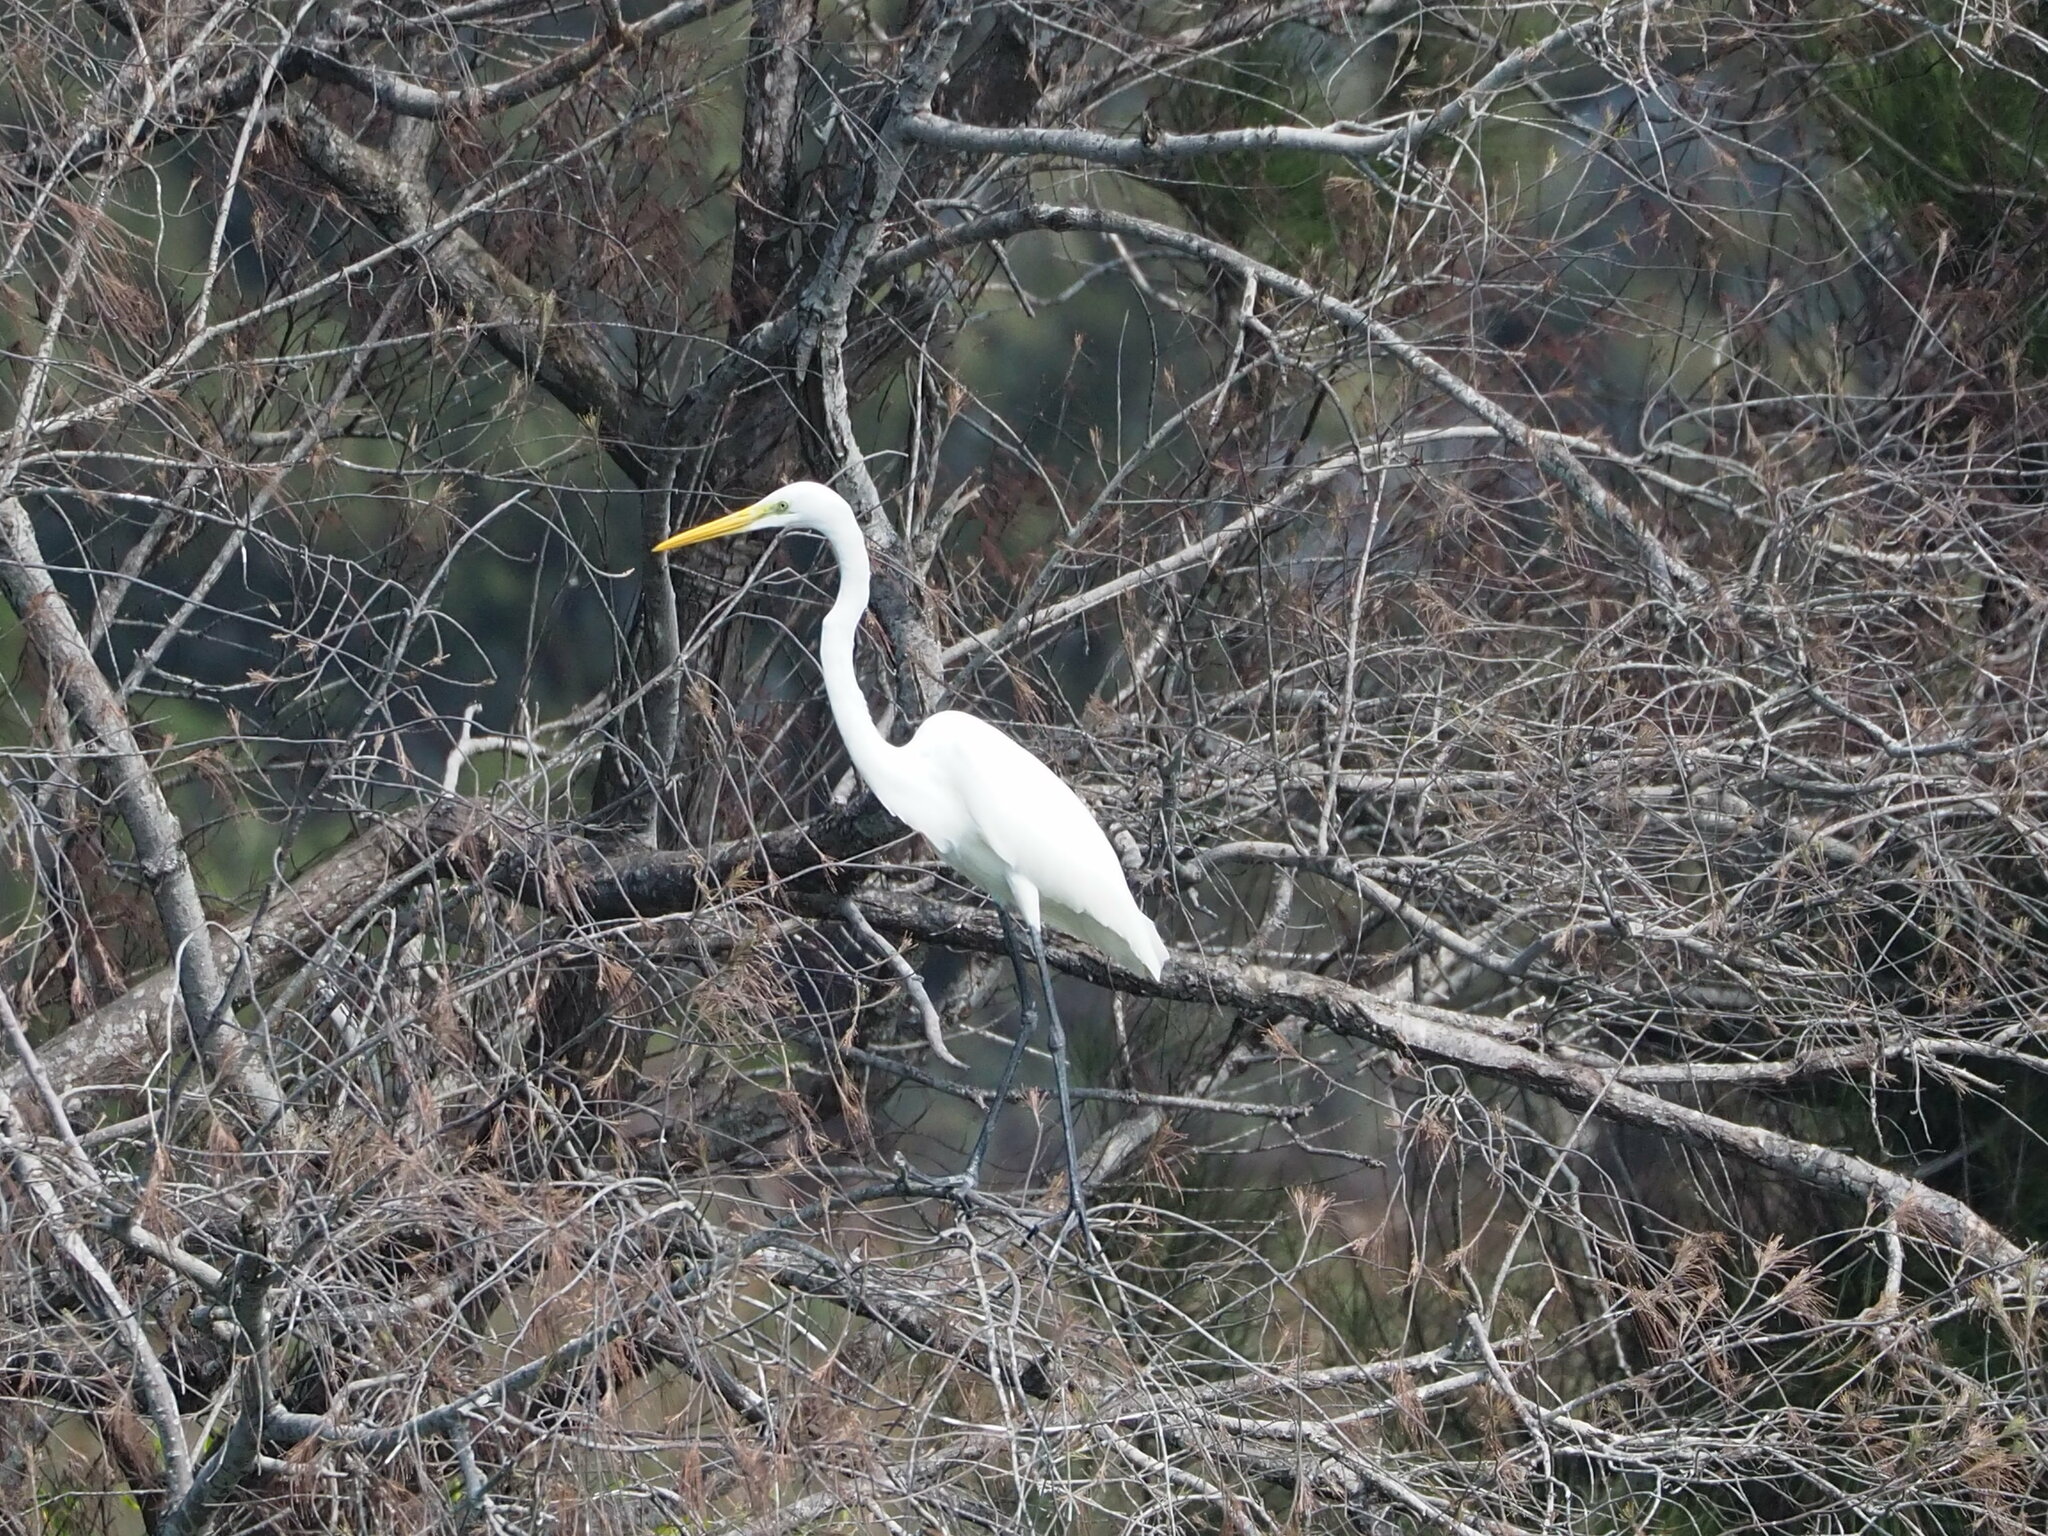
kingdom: Animalia
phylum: Chordata
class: Aves
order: Pelecaniformes
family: Ardeidae
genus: Ardea
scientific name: Ardea alba
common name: Great egret
